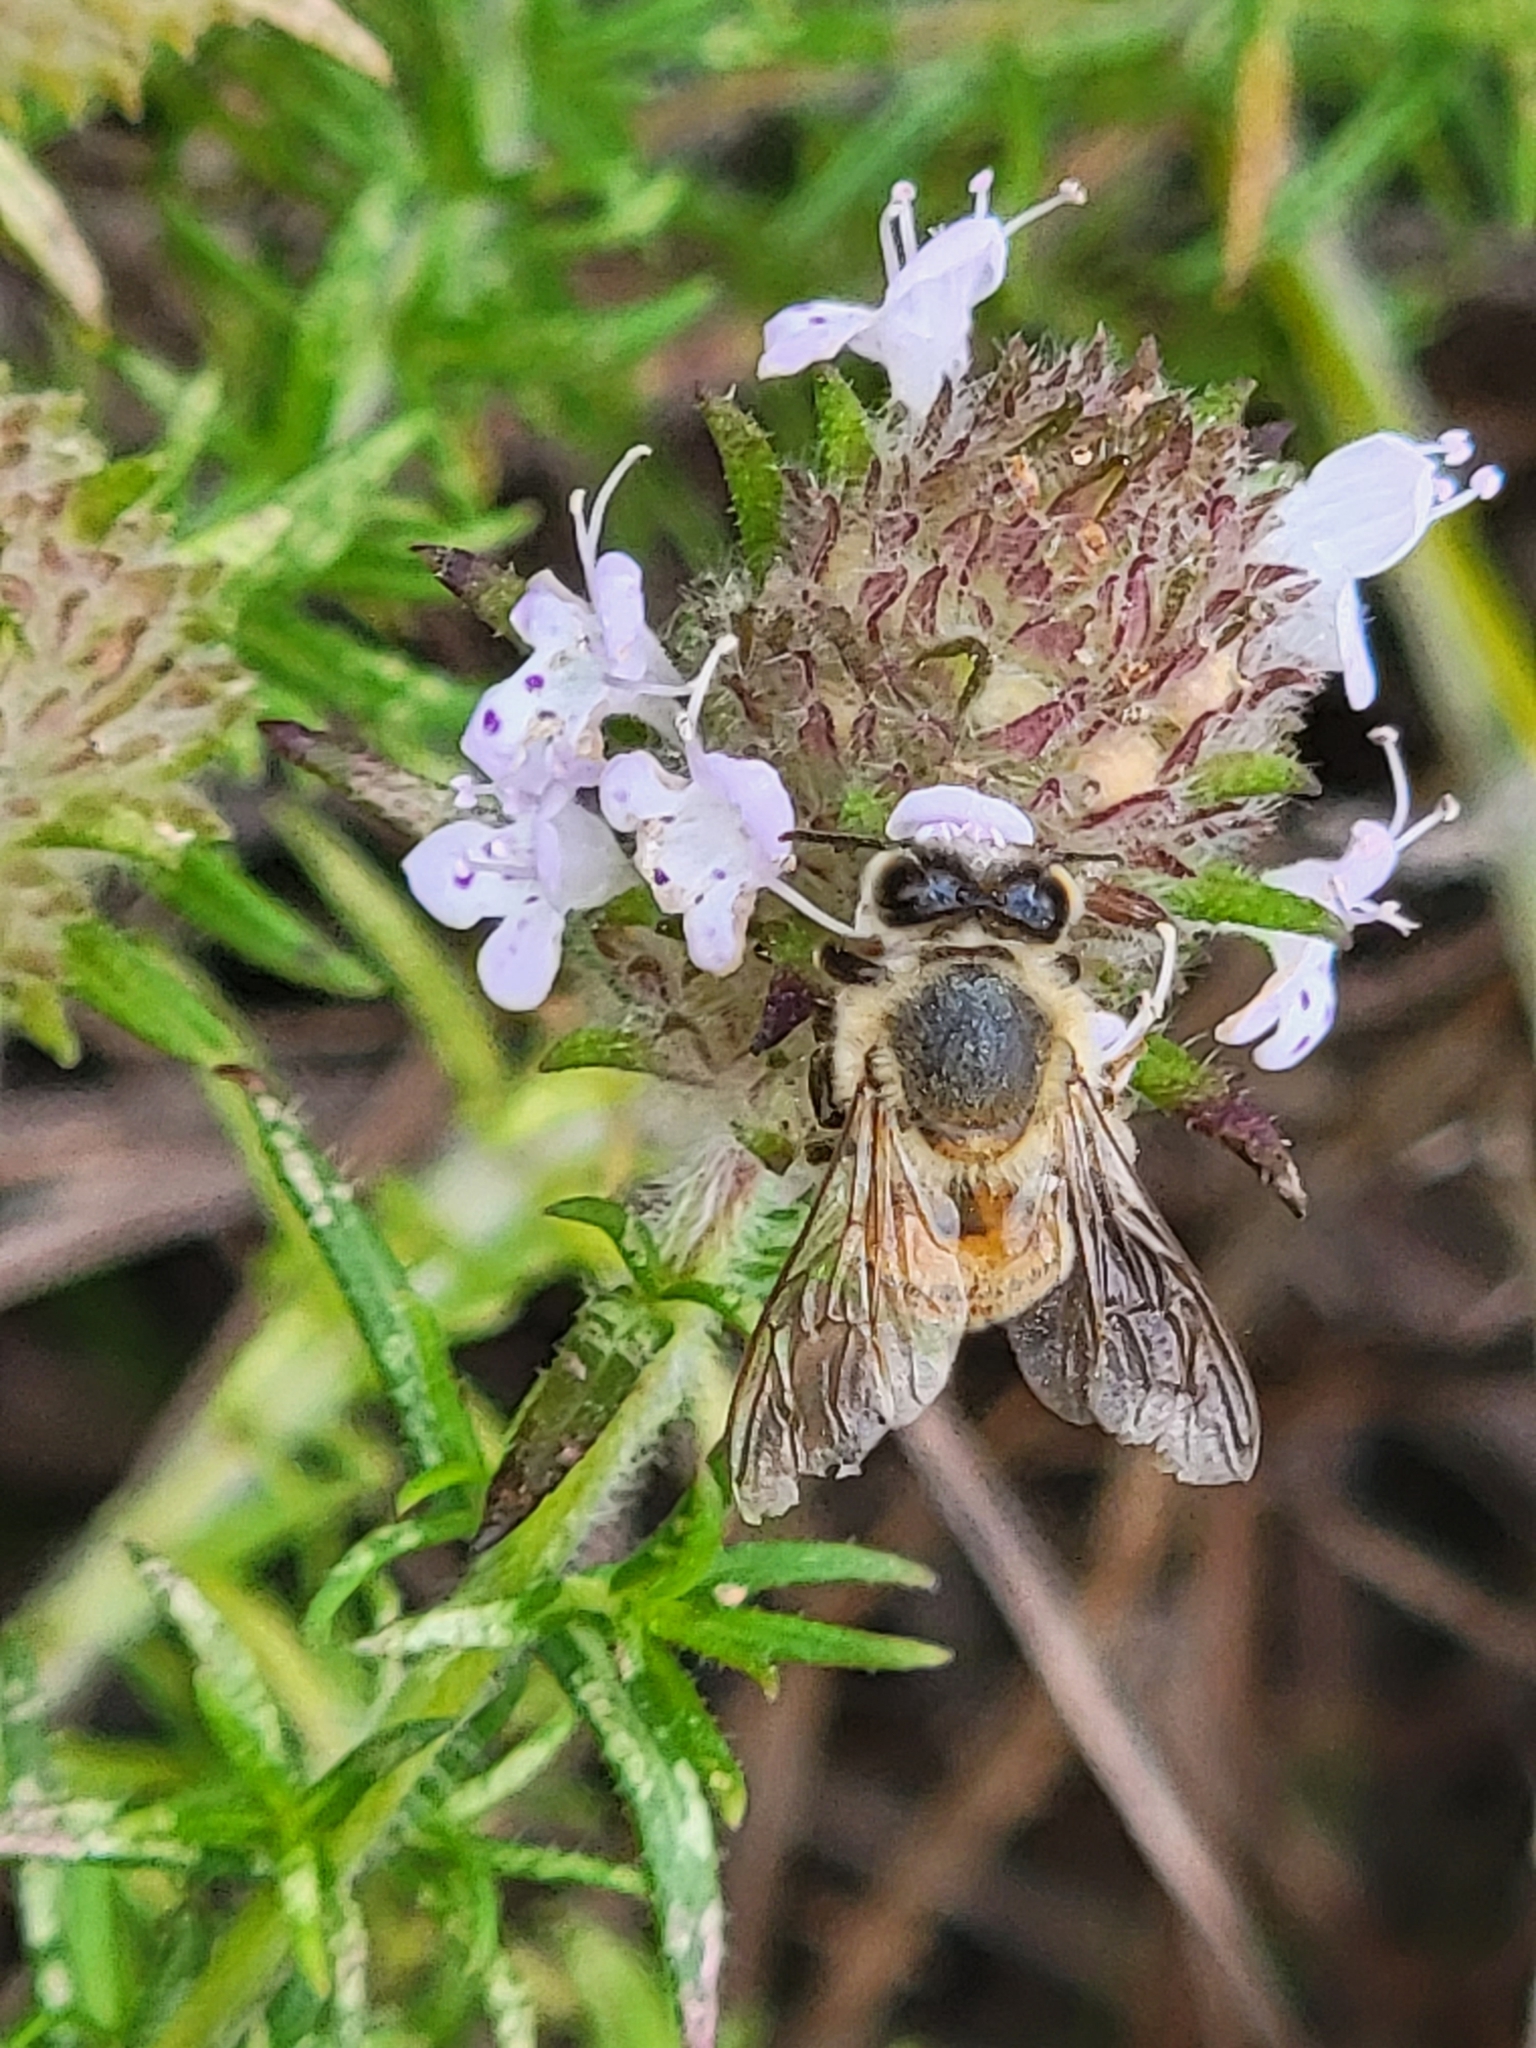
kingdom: Animalia
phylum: Arthropoda
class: Insecta
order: Hymenoptera
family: Apidae
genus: Apis
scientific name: Apis mellifera
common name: Honey bee
